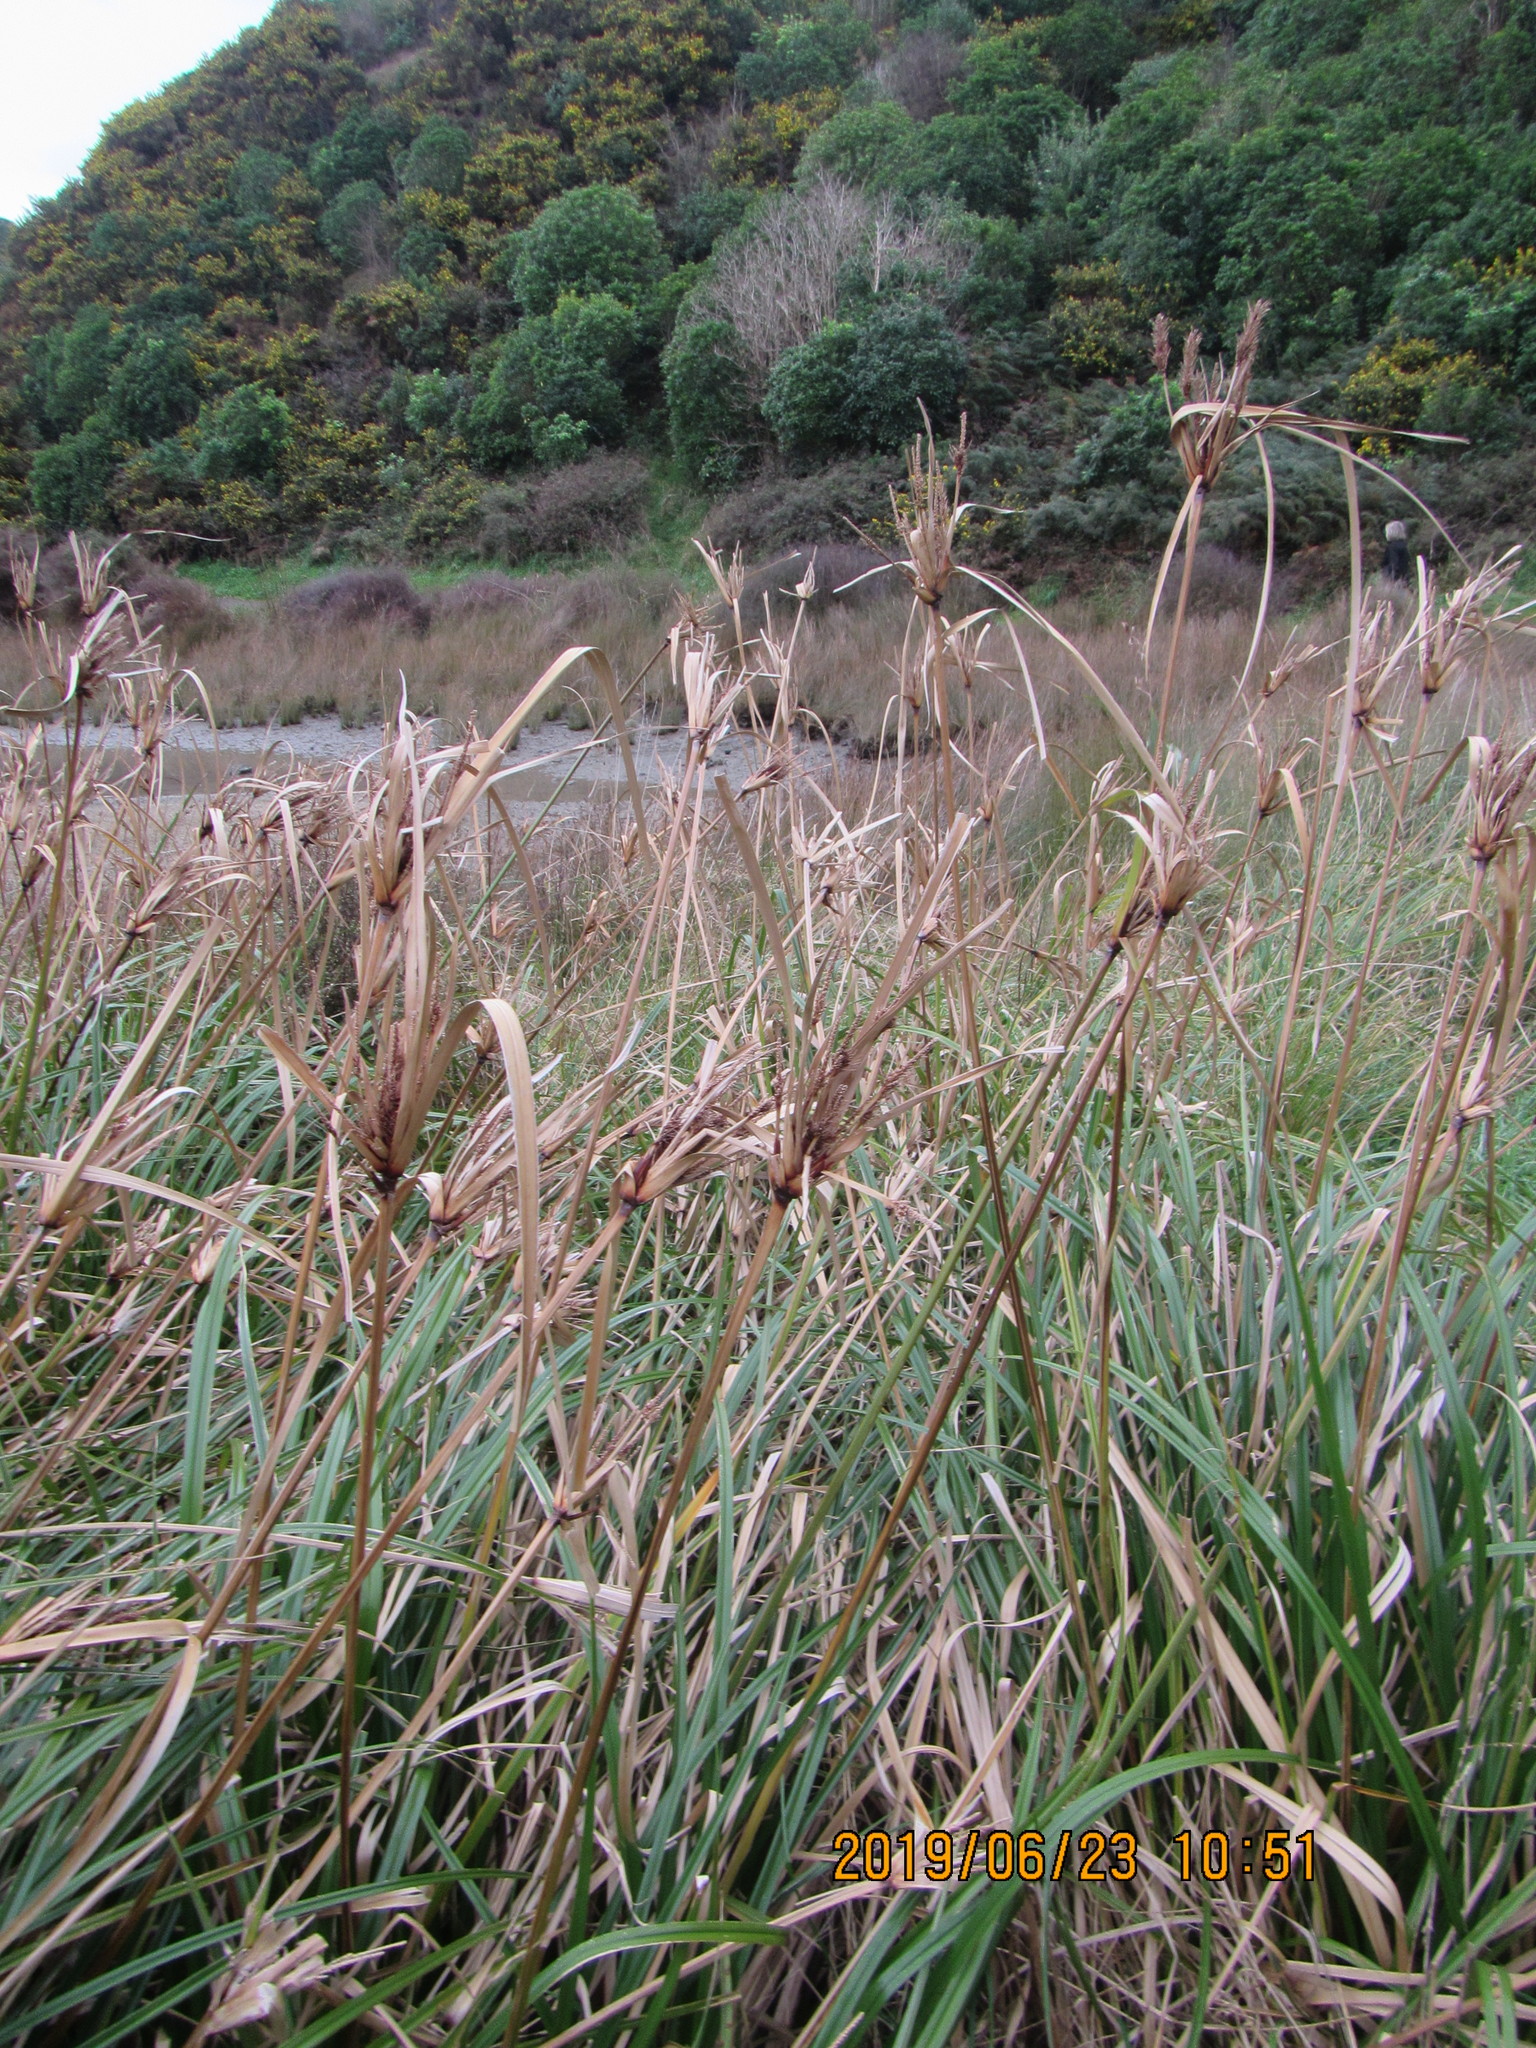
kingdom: Plantae
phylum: Tracheophyta
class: Liliopsida
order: Poales
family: Cyperaceae
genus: Cyperus
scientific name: Cyperus ustulatus
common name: Giant umbrella-sedge
